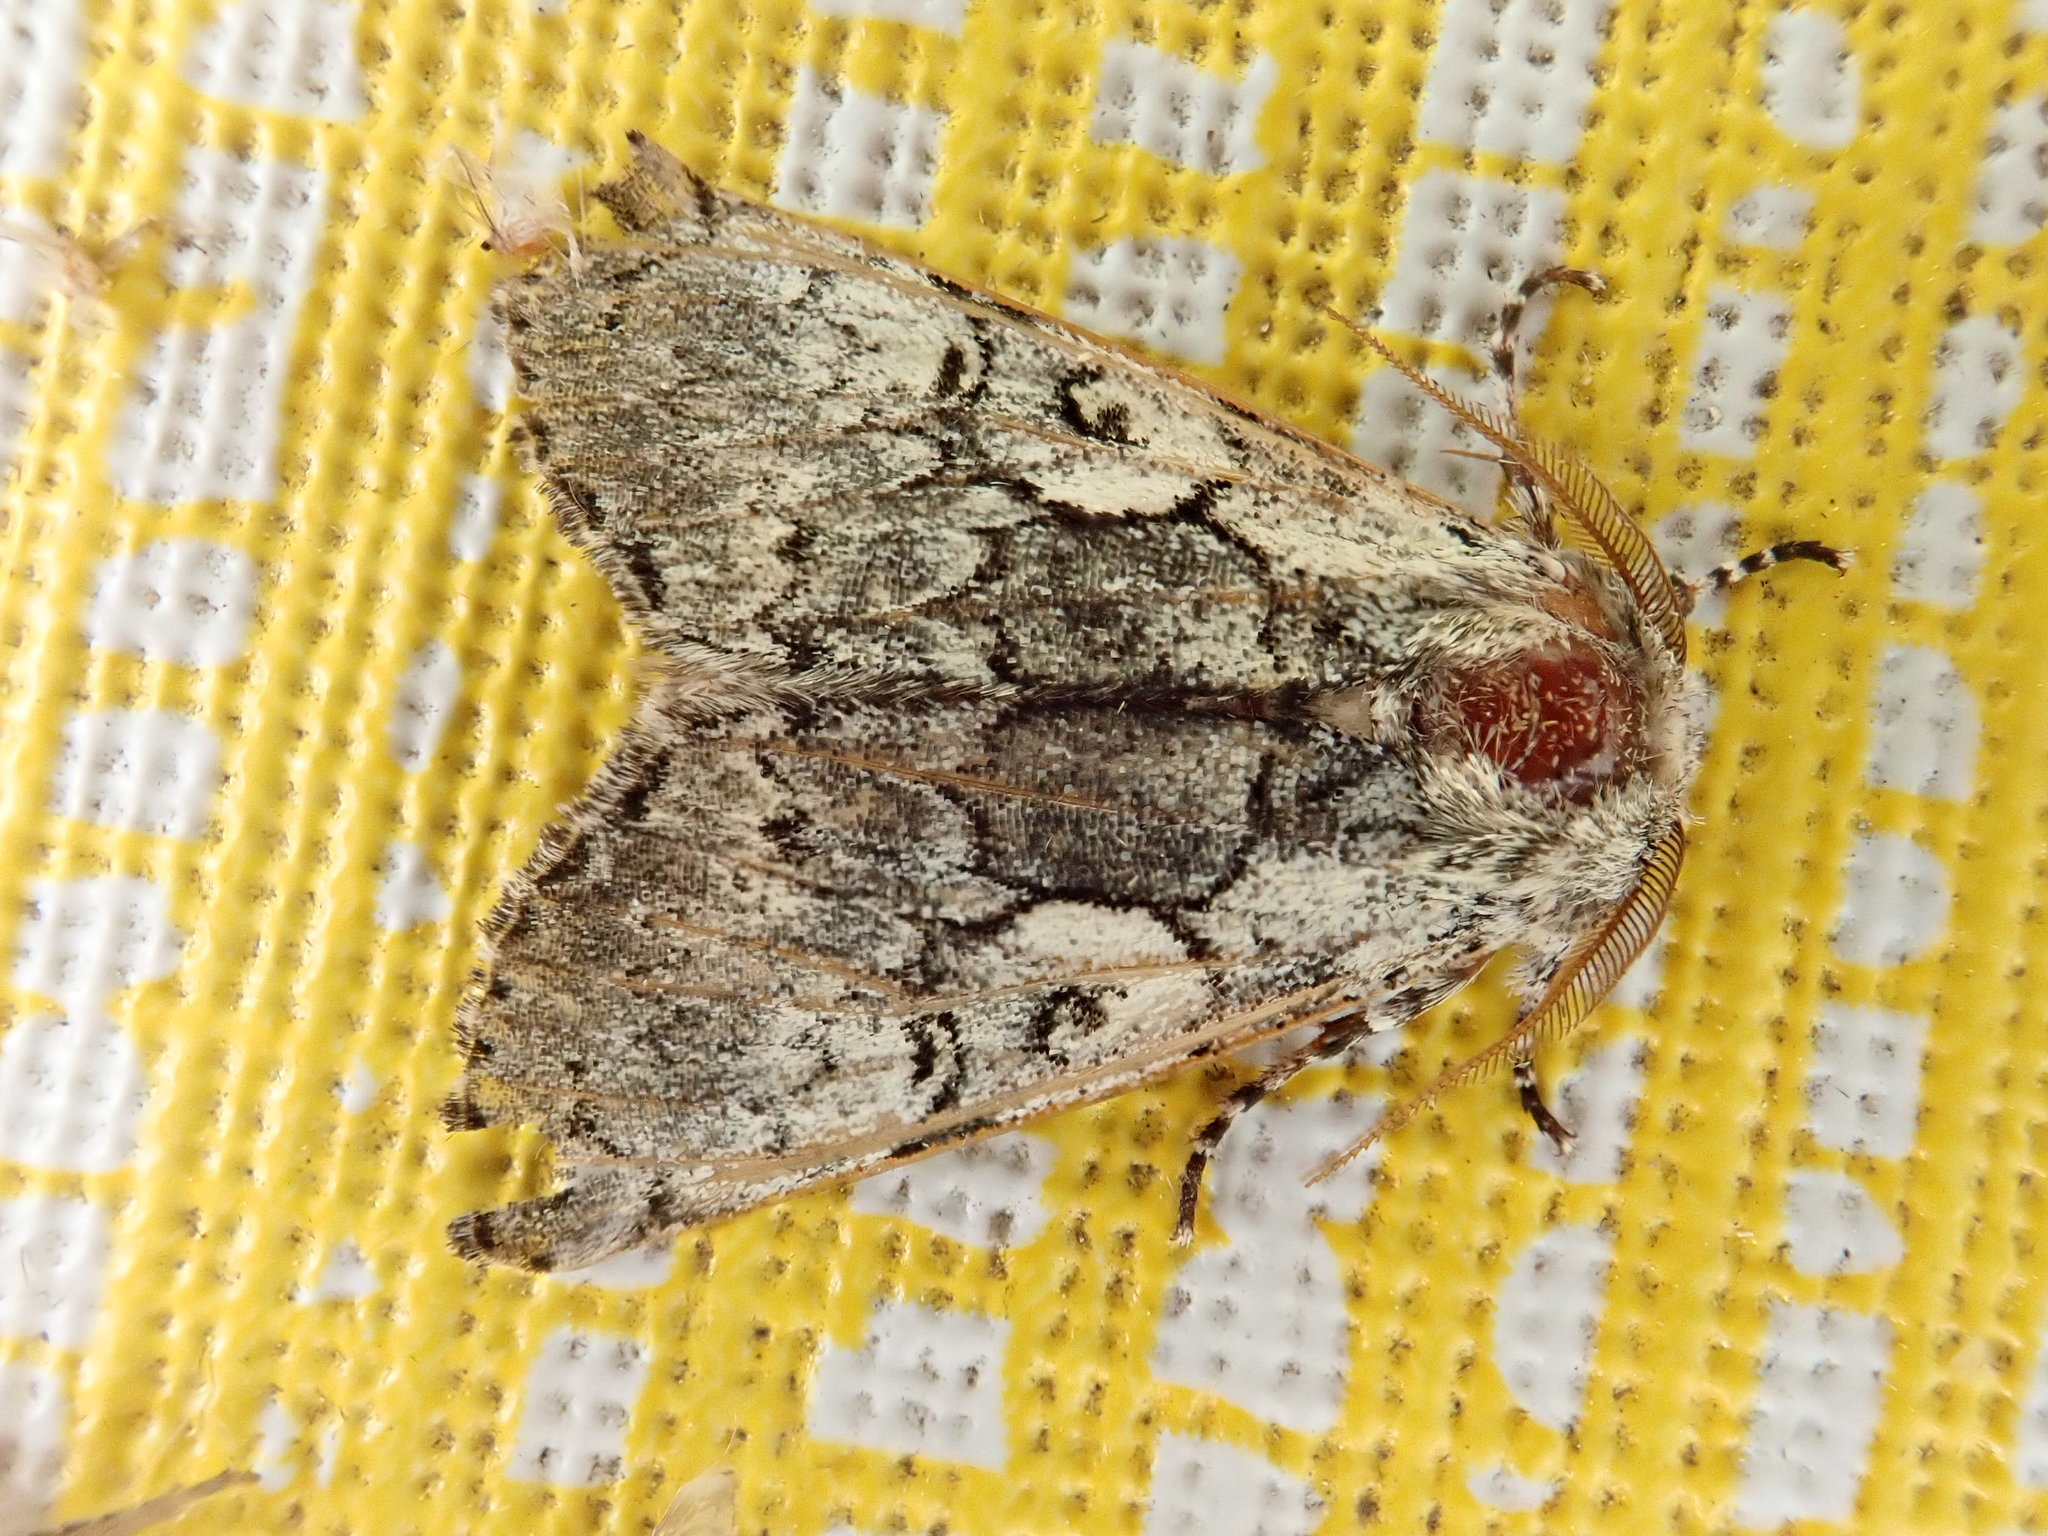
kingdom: Animalia
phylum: Arthropoda
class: Insecta
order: Lepidoptera
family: Noctuidae
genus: Charadra
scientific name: Charadra deridens
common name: Marbled tuffet
